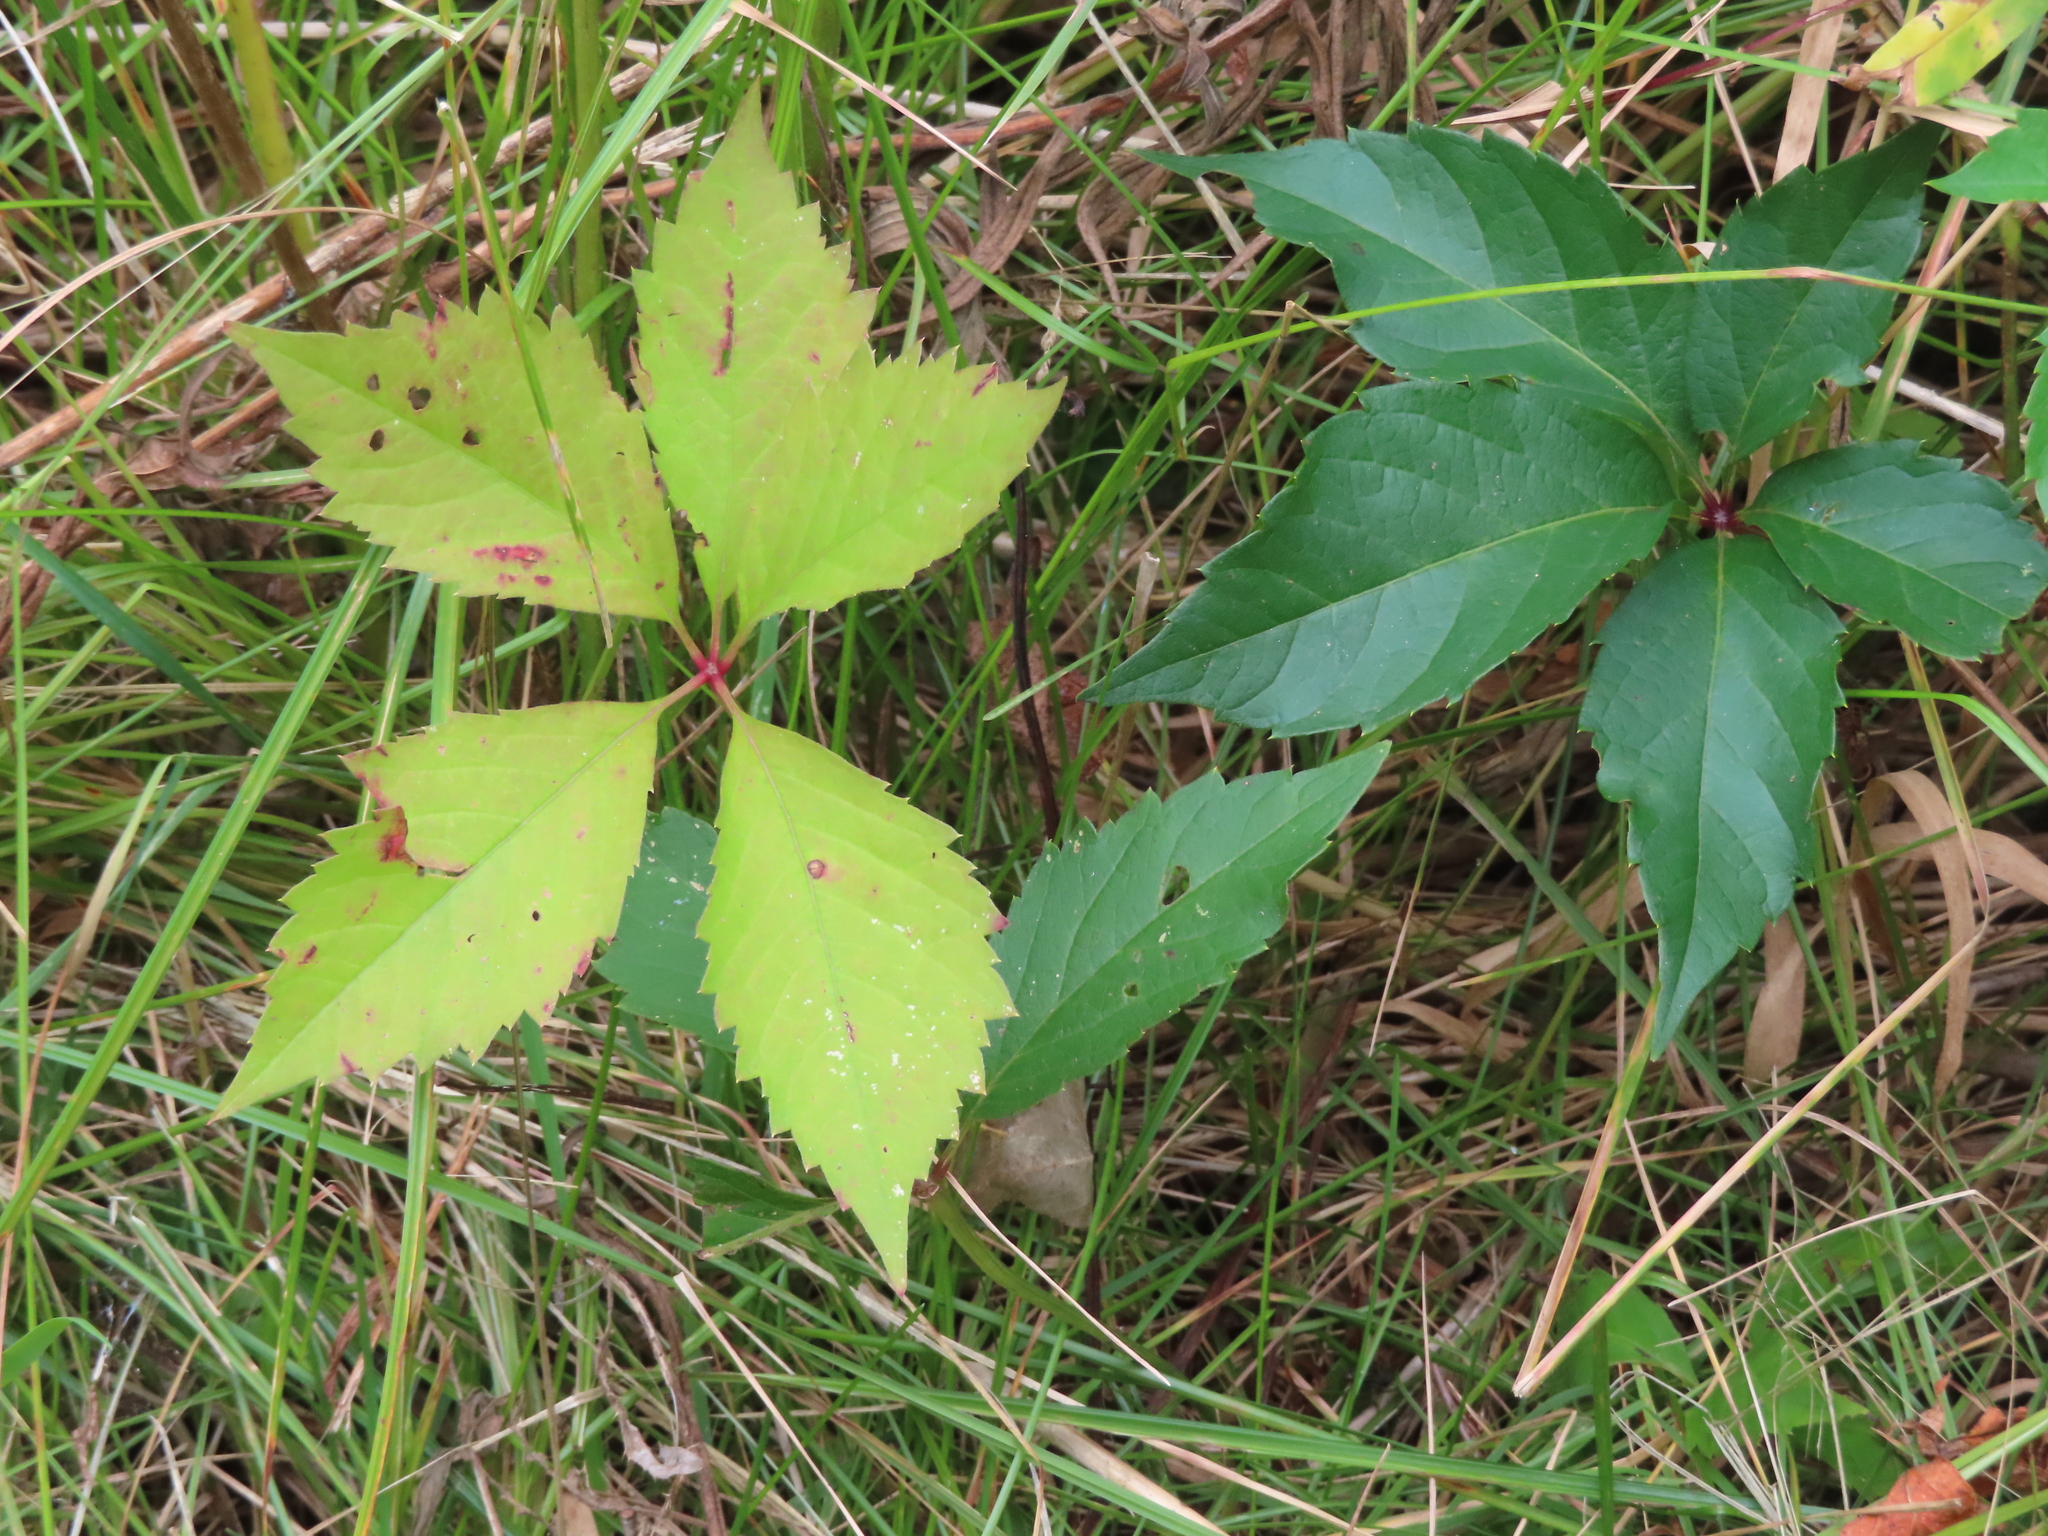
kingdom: Plantae
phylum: Tracheophyta
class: Magnoliopsida
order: Vitales
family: Vitaceae
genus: Parthenocissus
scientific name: Parthenocissus quinquefolia
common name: Virginia-creeper
